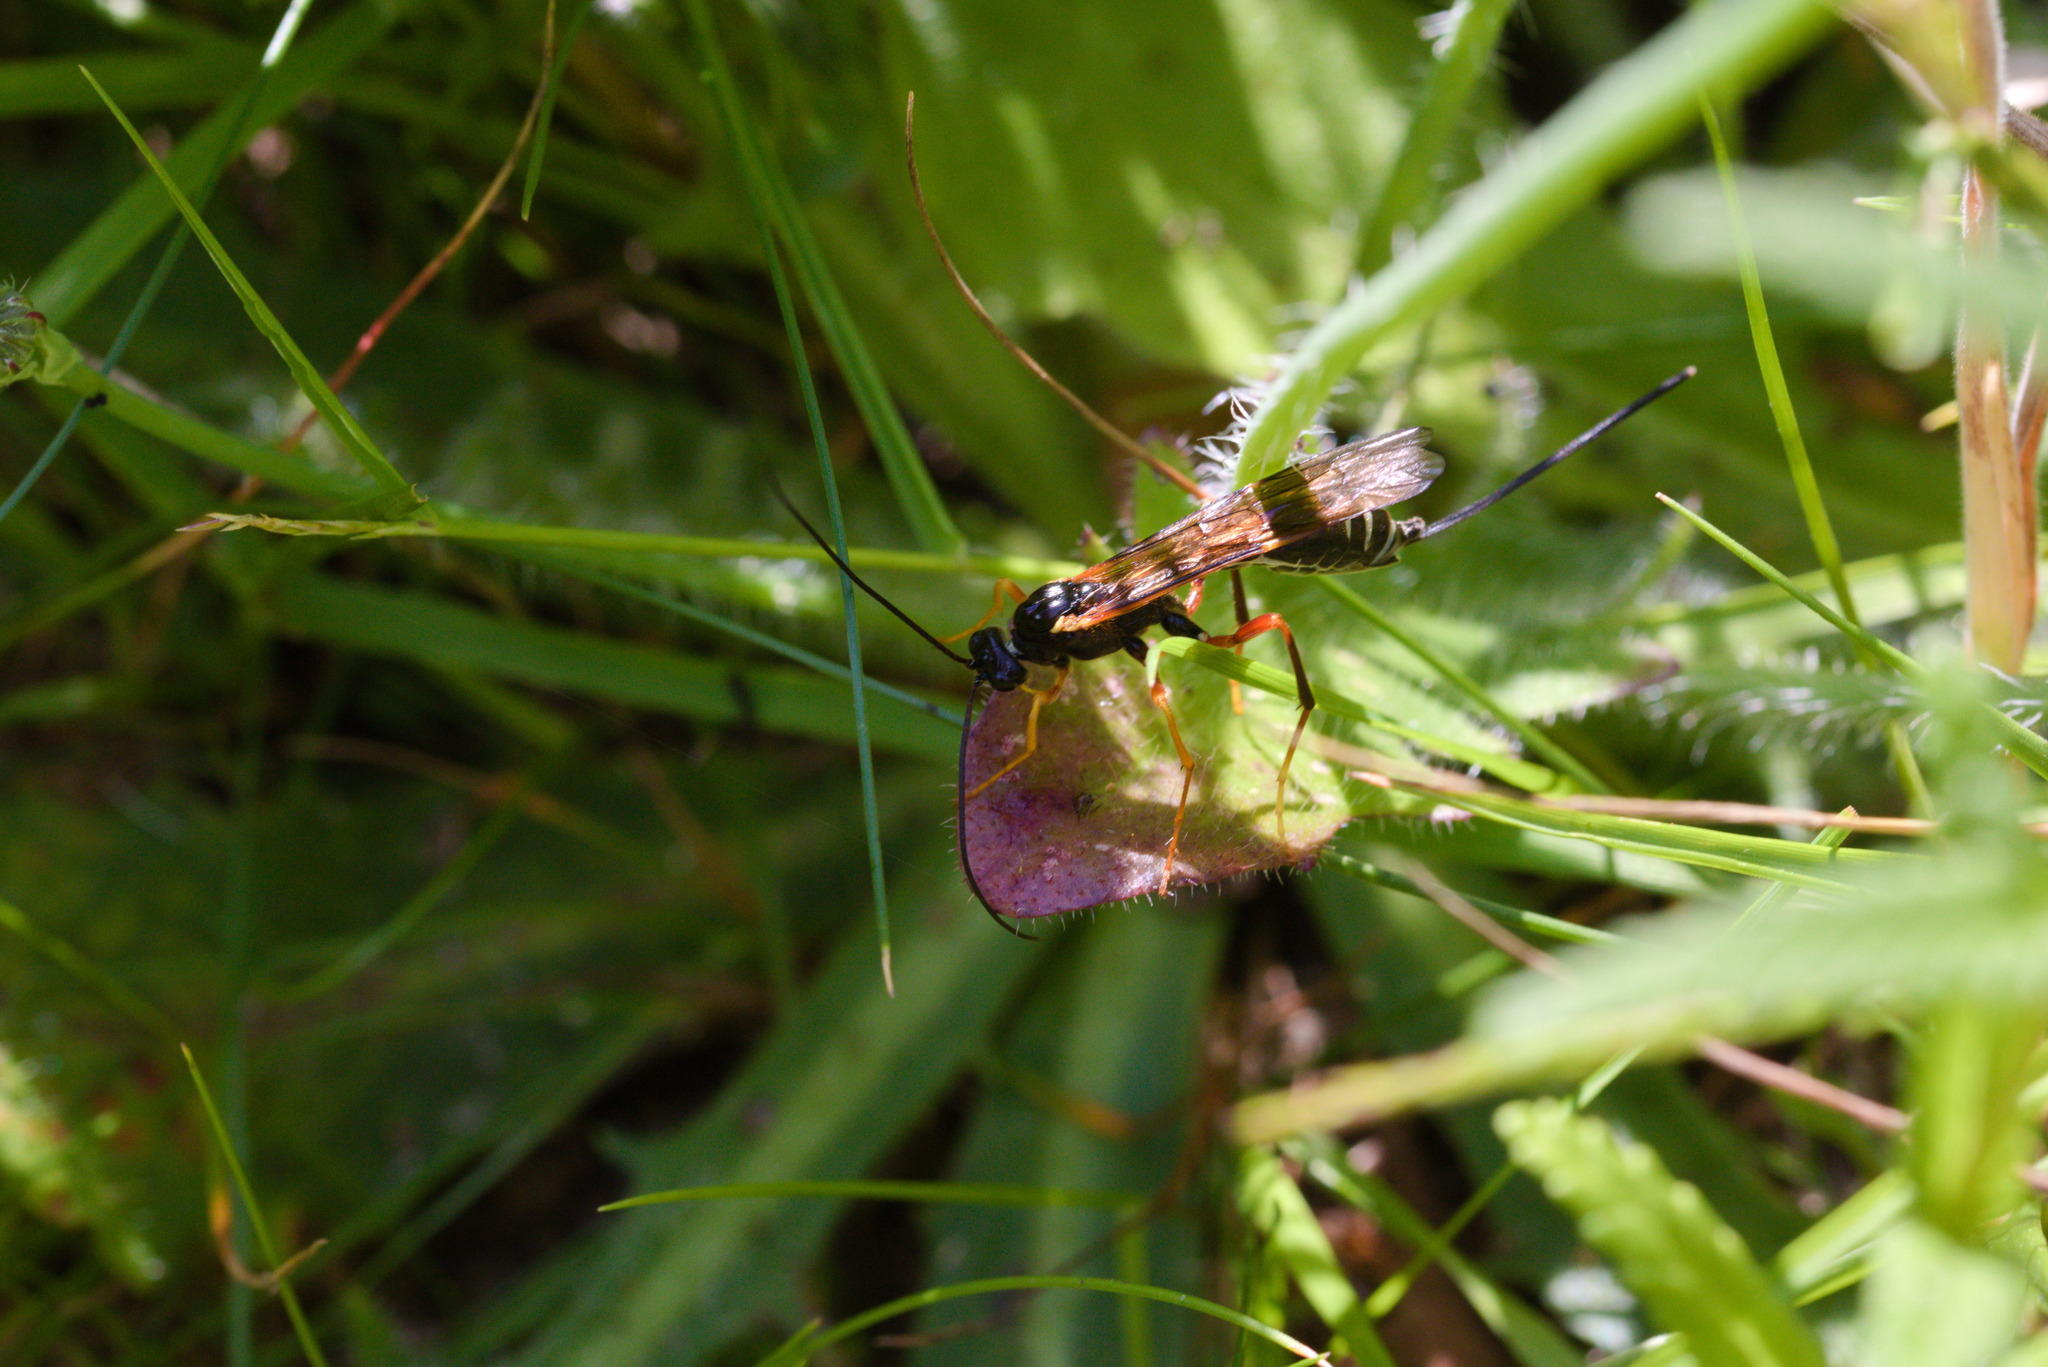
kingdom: Animalia
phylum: Arthropoda
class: Insecta
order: Hymenoptera
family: Ichneumonidae
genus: Coleocentrus
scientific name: Coleocentrus excitator
